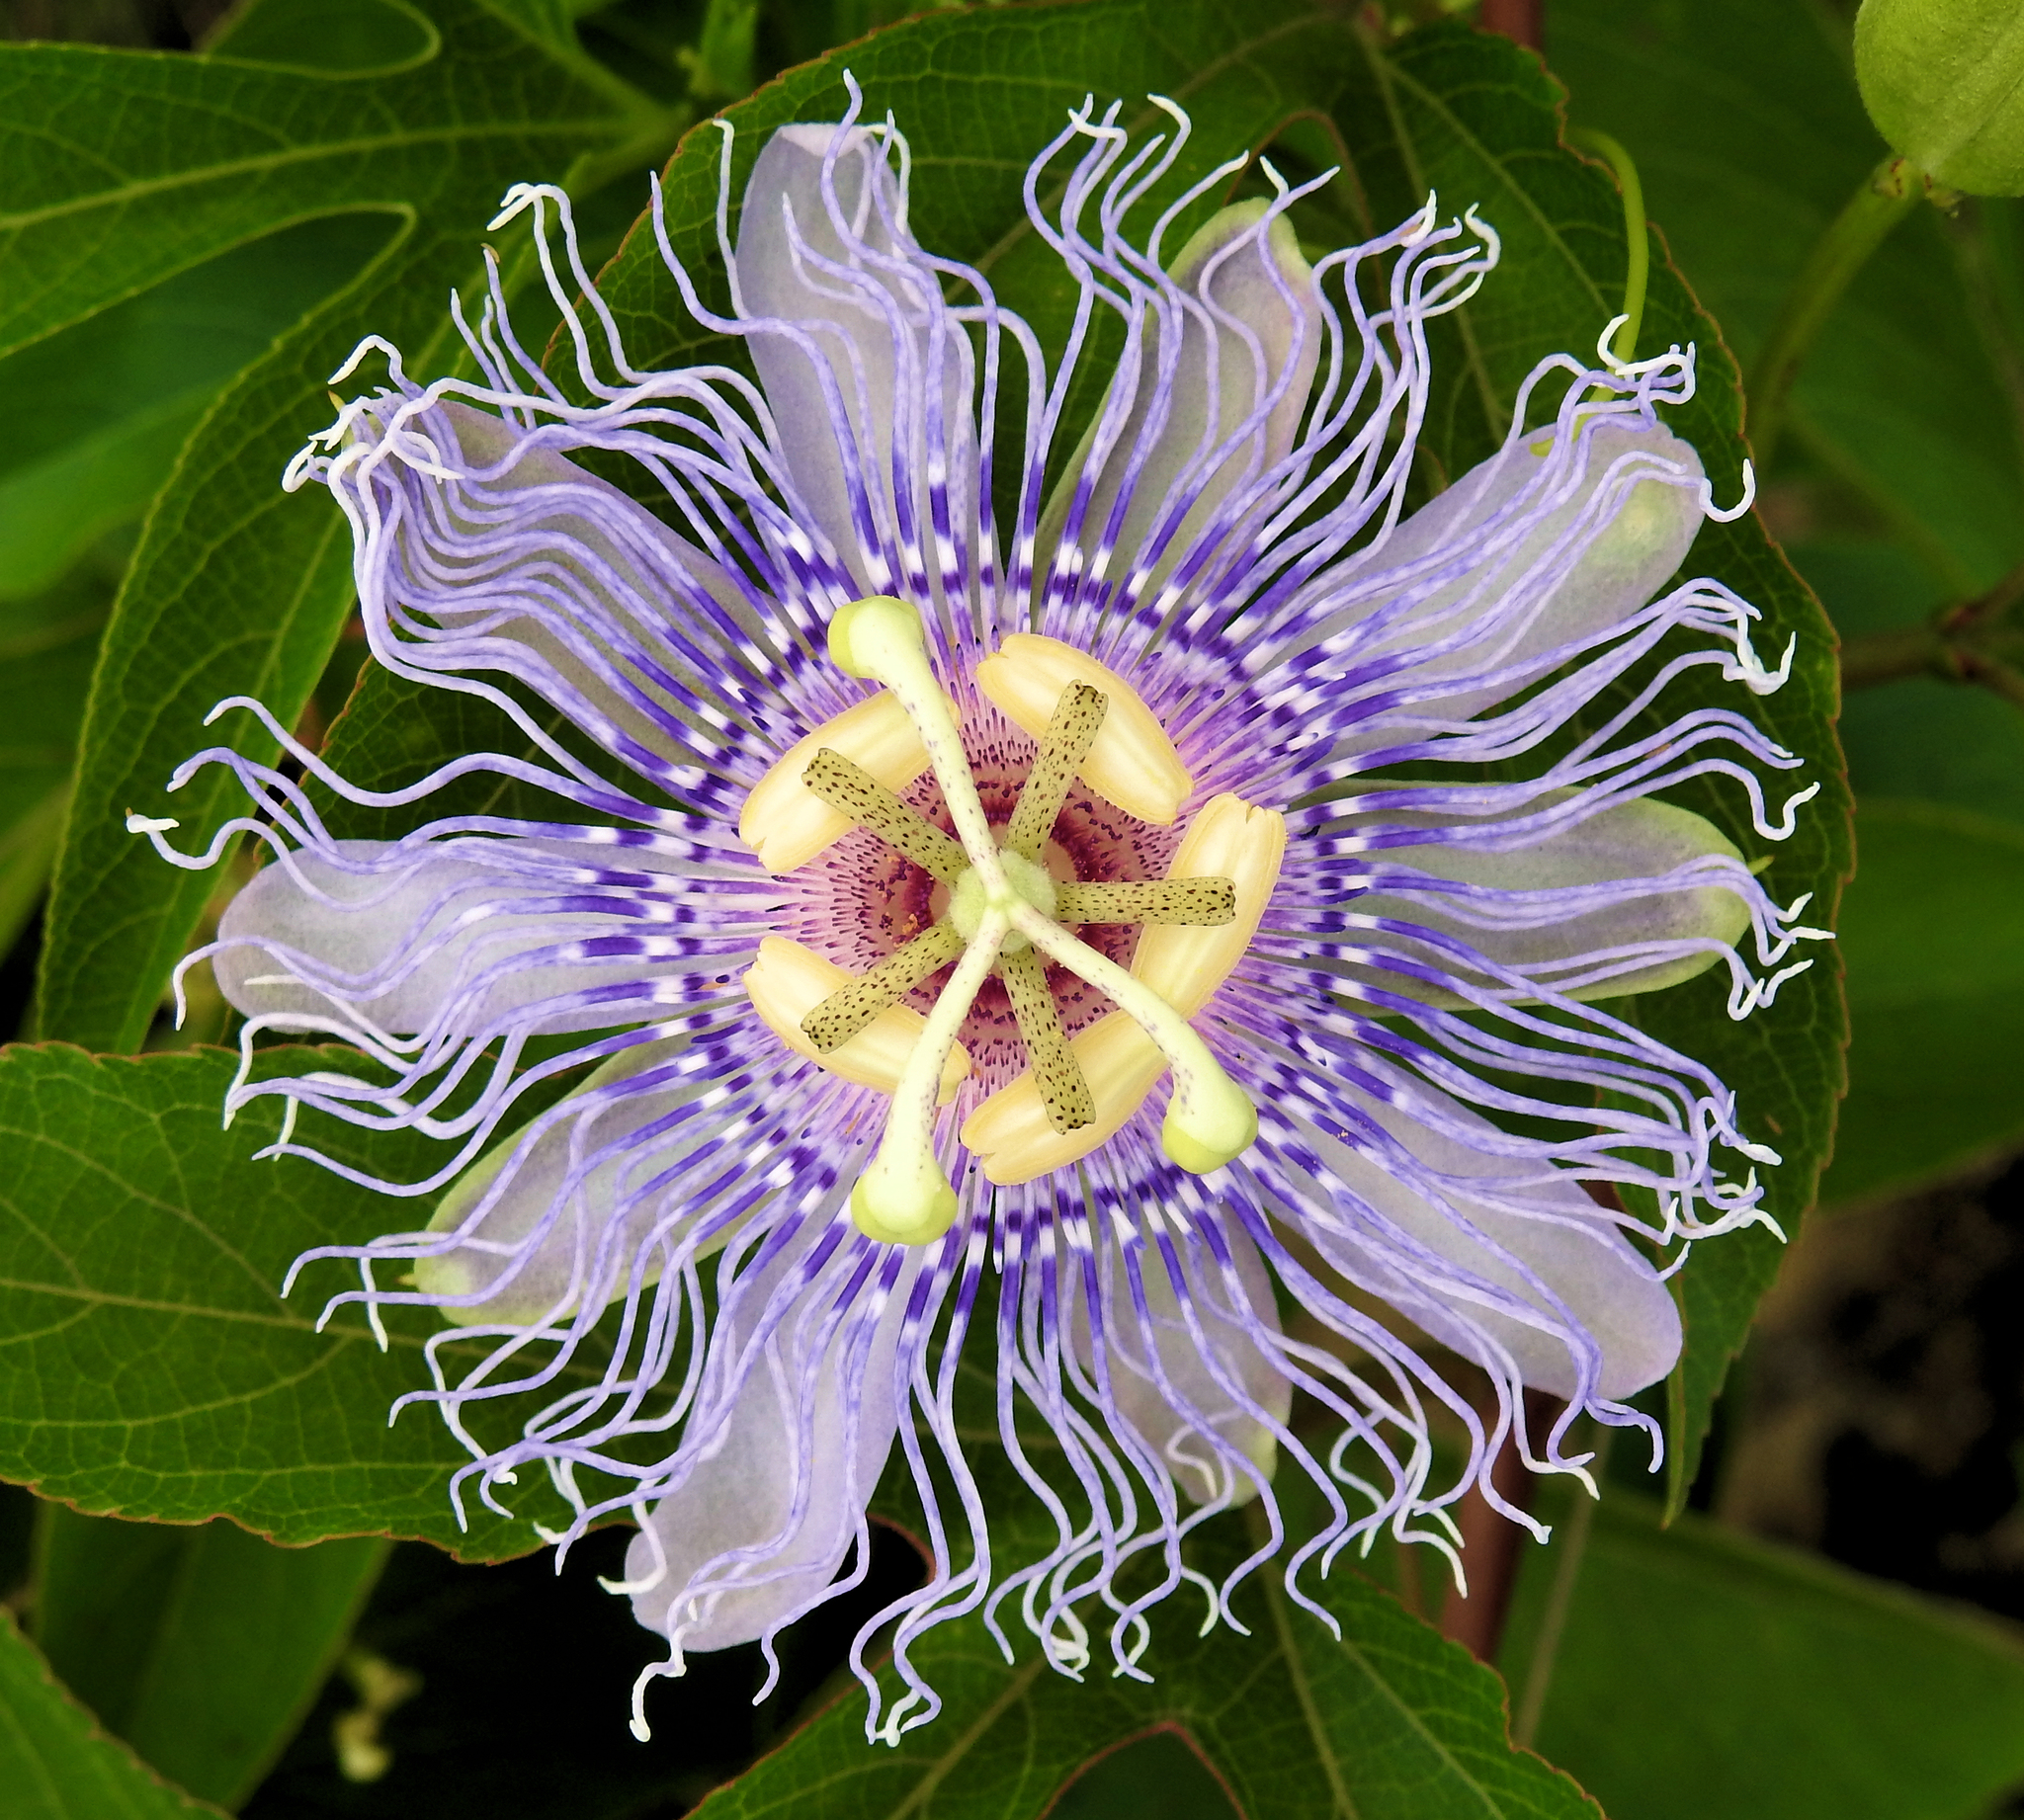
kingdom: Plantae
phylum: Tracheophyta
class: Magnoliopsida
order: Malpighiales
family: Passifloraceae
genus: Passiflora
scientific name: Passiflora incarnata
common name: Apricot-vine
